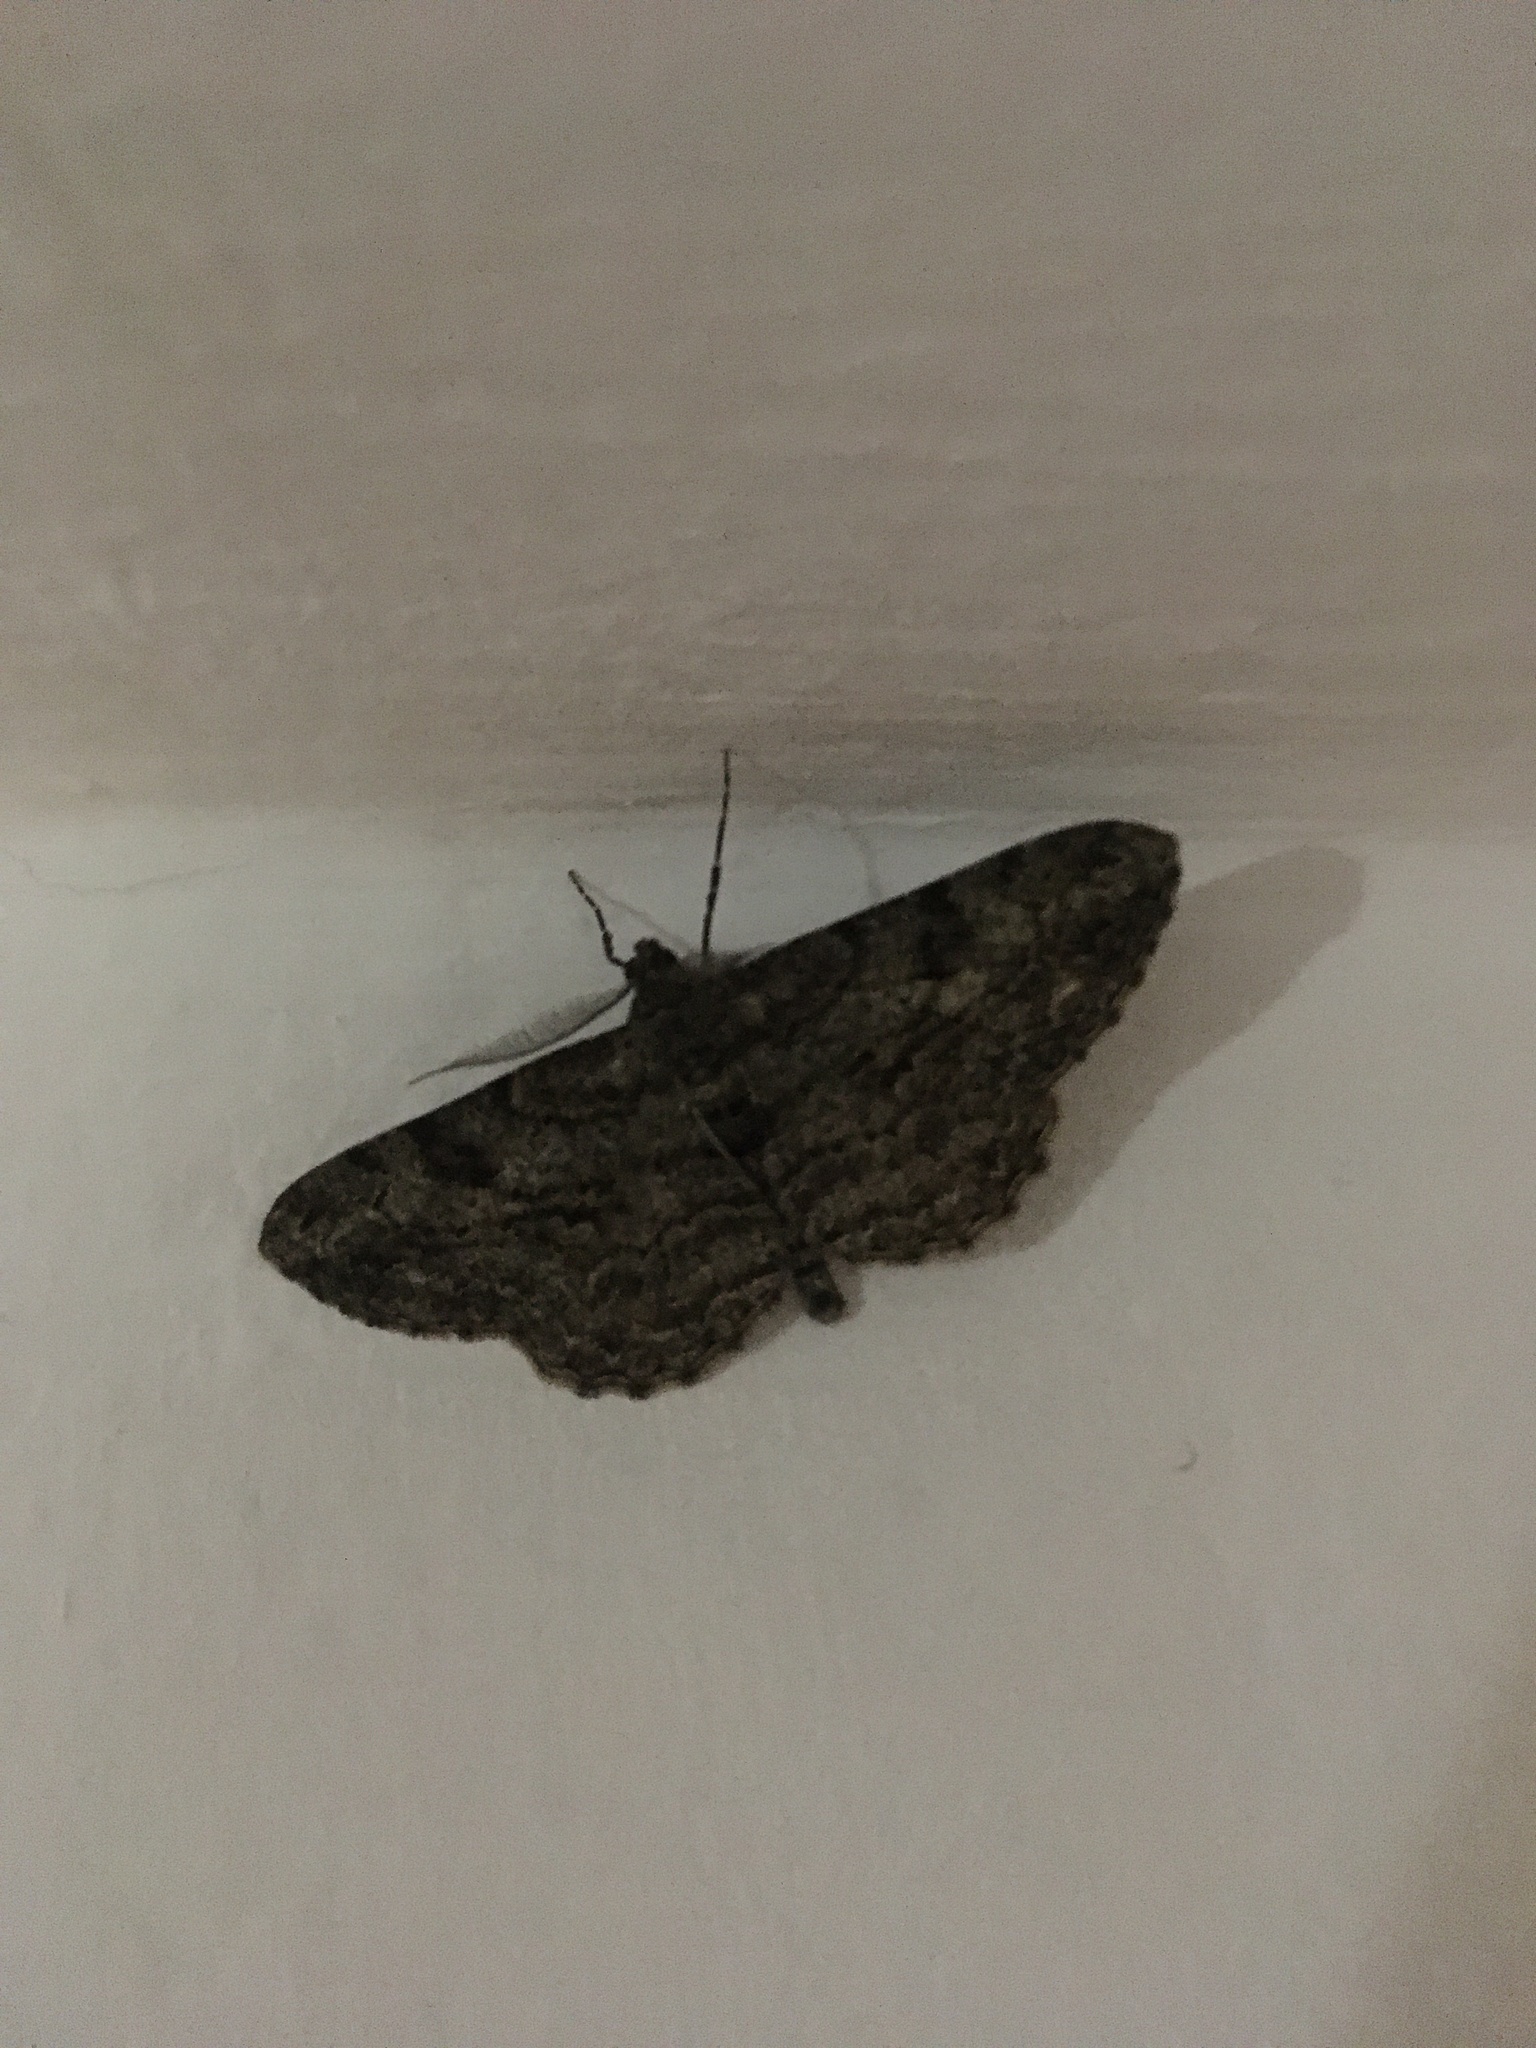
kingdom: Animalia
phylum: Arthropoda
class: Insecta
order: Lepidoptera
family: Geometridae
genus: Peribatodes
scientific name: Peribatodes rhomboidaria
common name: Willow beauty
